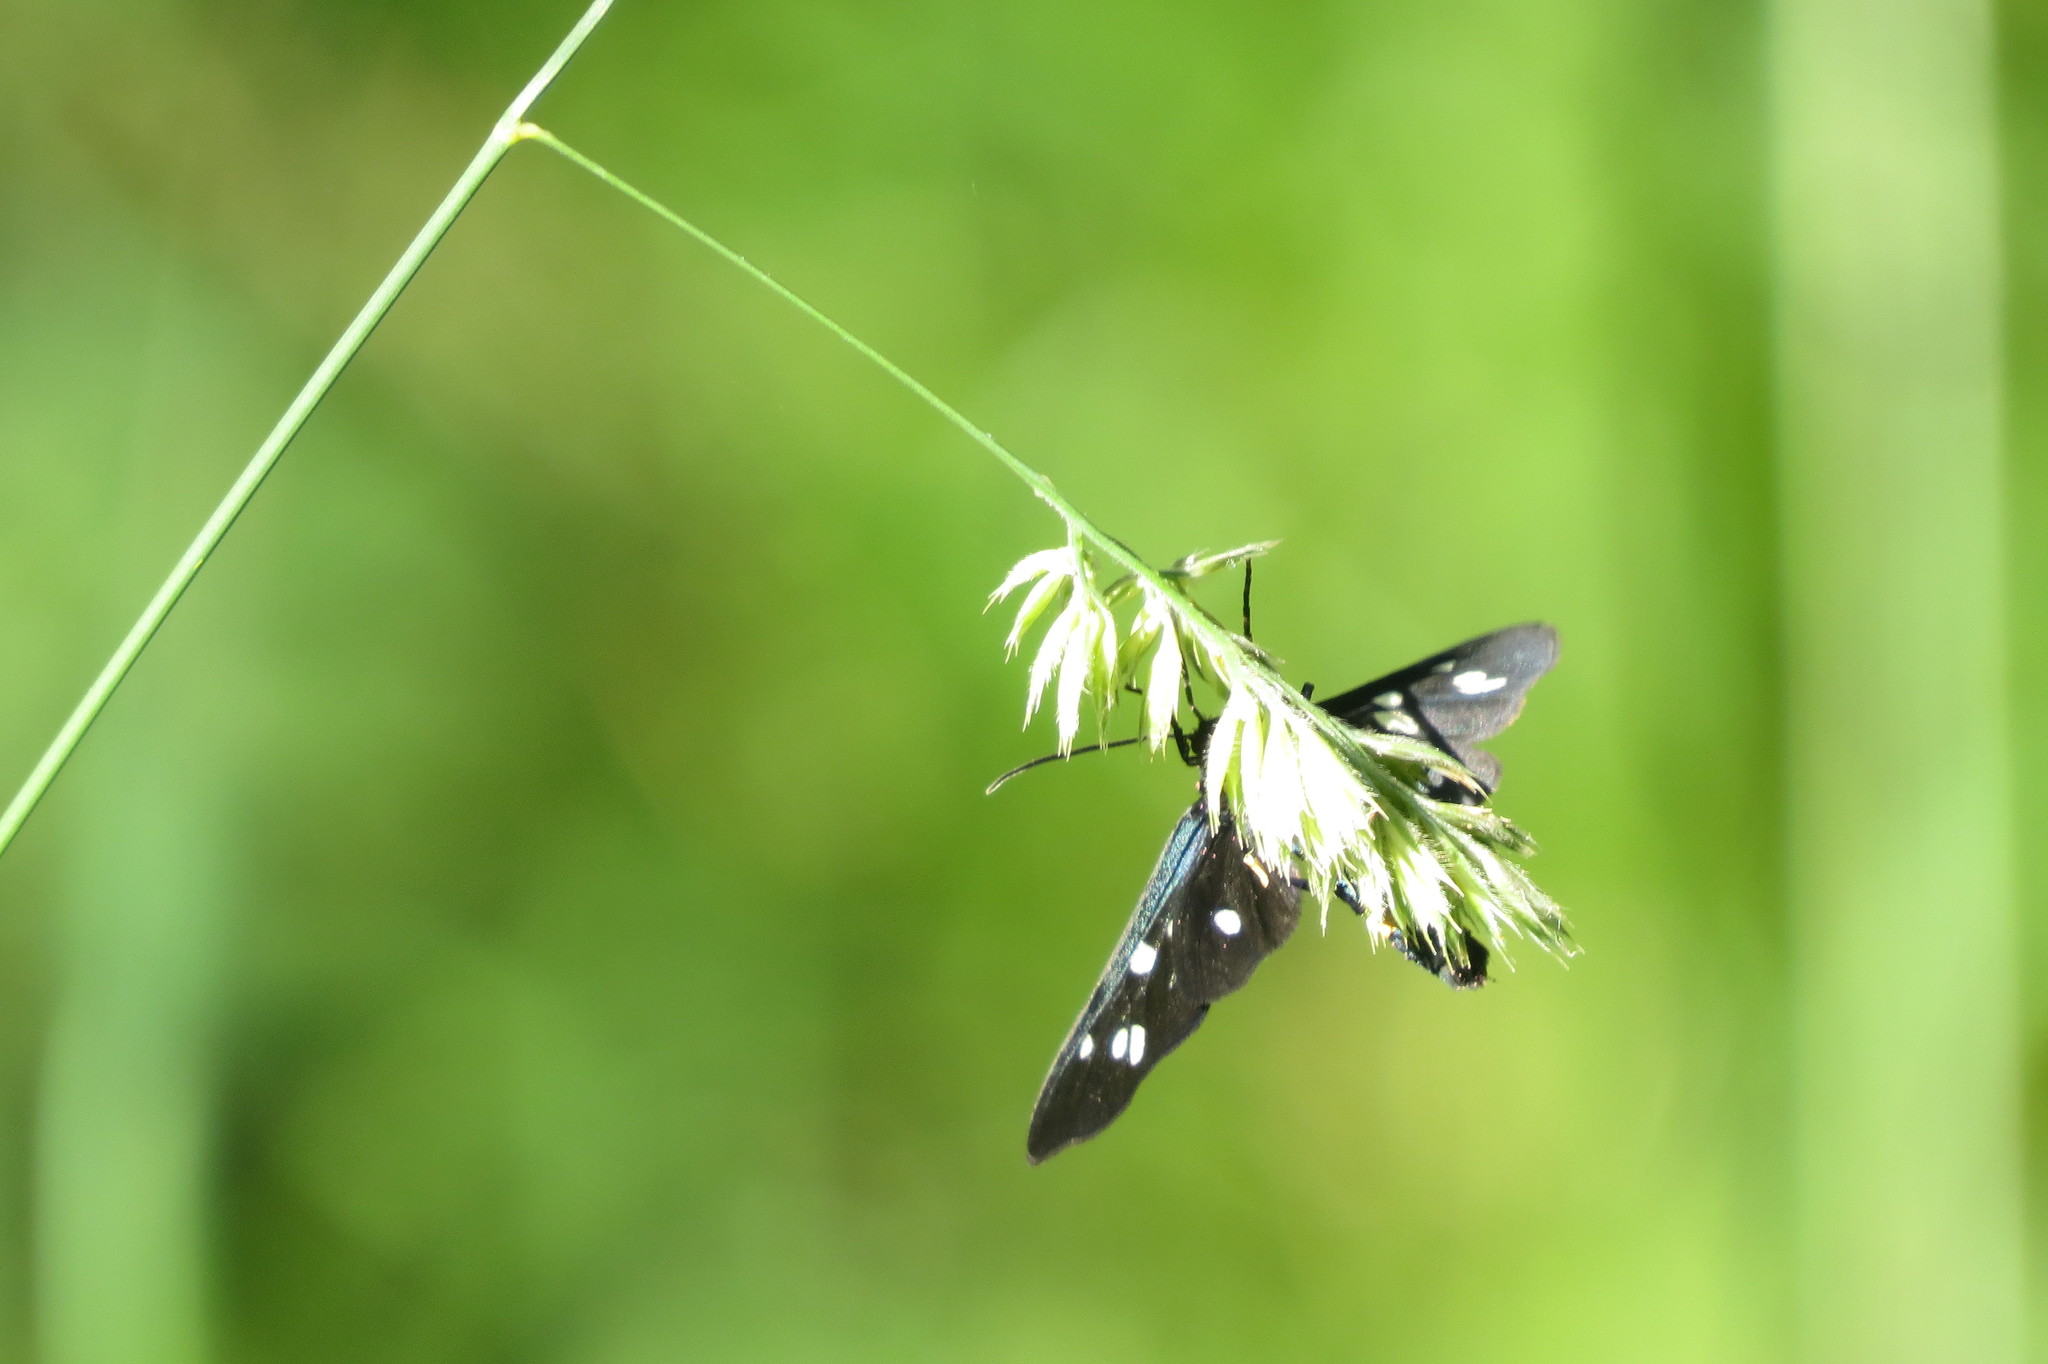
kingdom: Animalia
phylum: Arthropoda
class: Insecta
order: Lepidoptera
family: Erebidae
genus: Amata
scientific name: Amata phegea
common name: Nine-spotted
